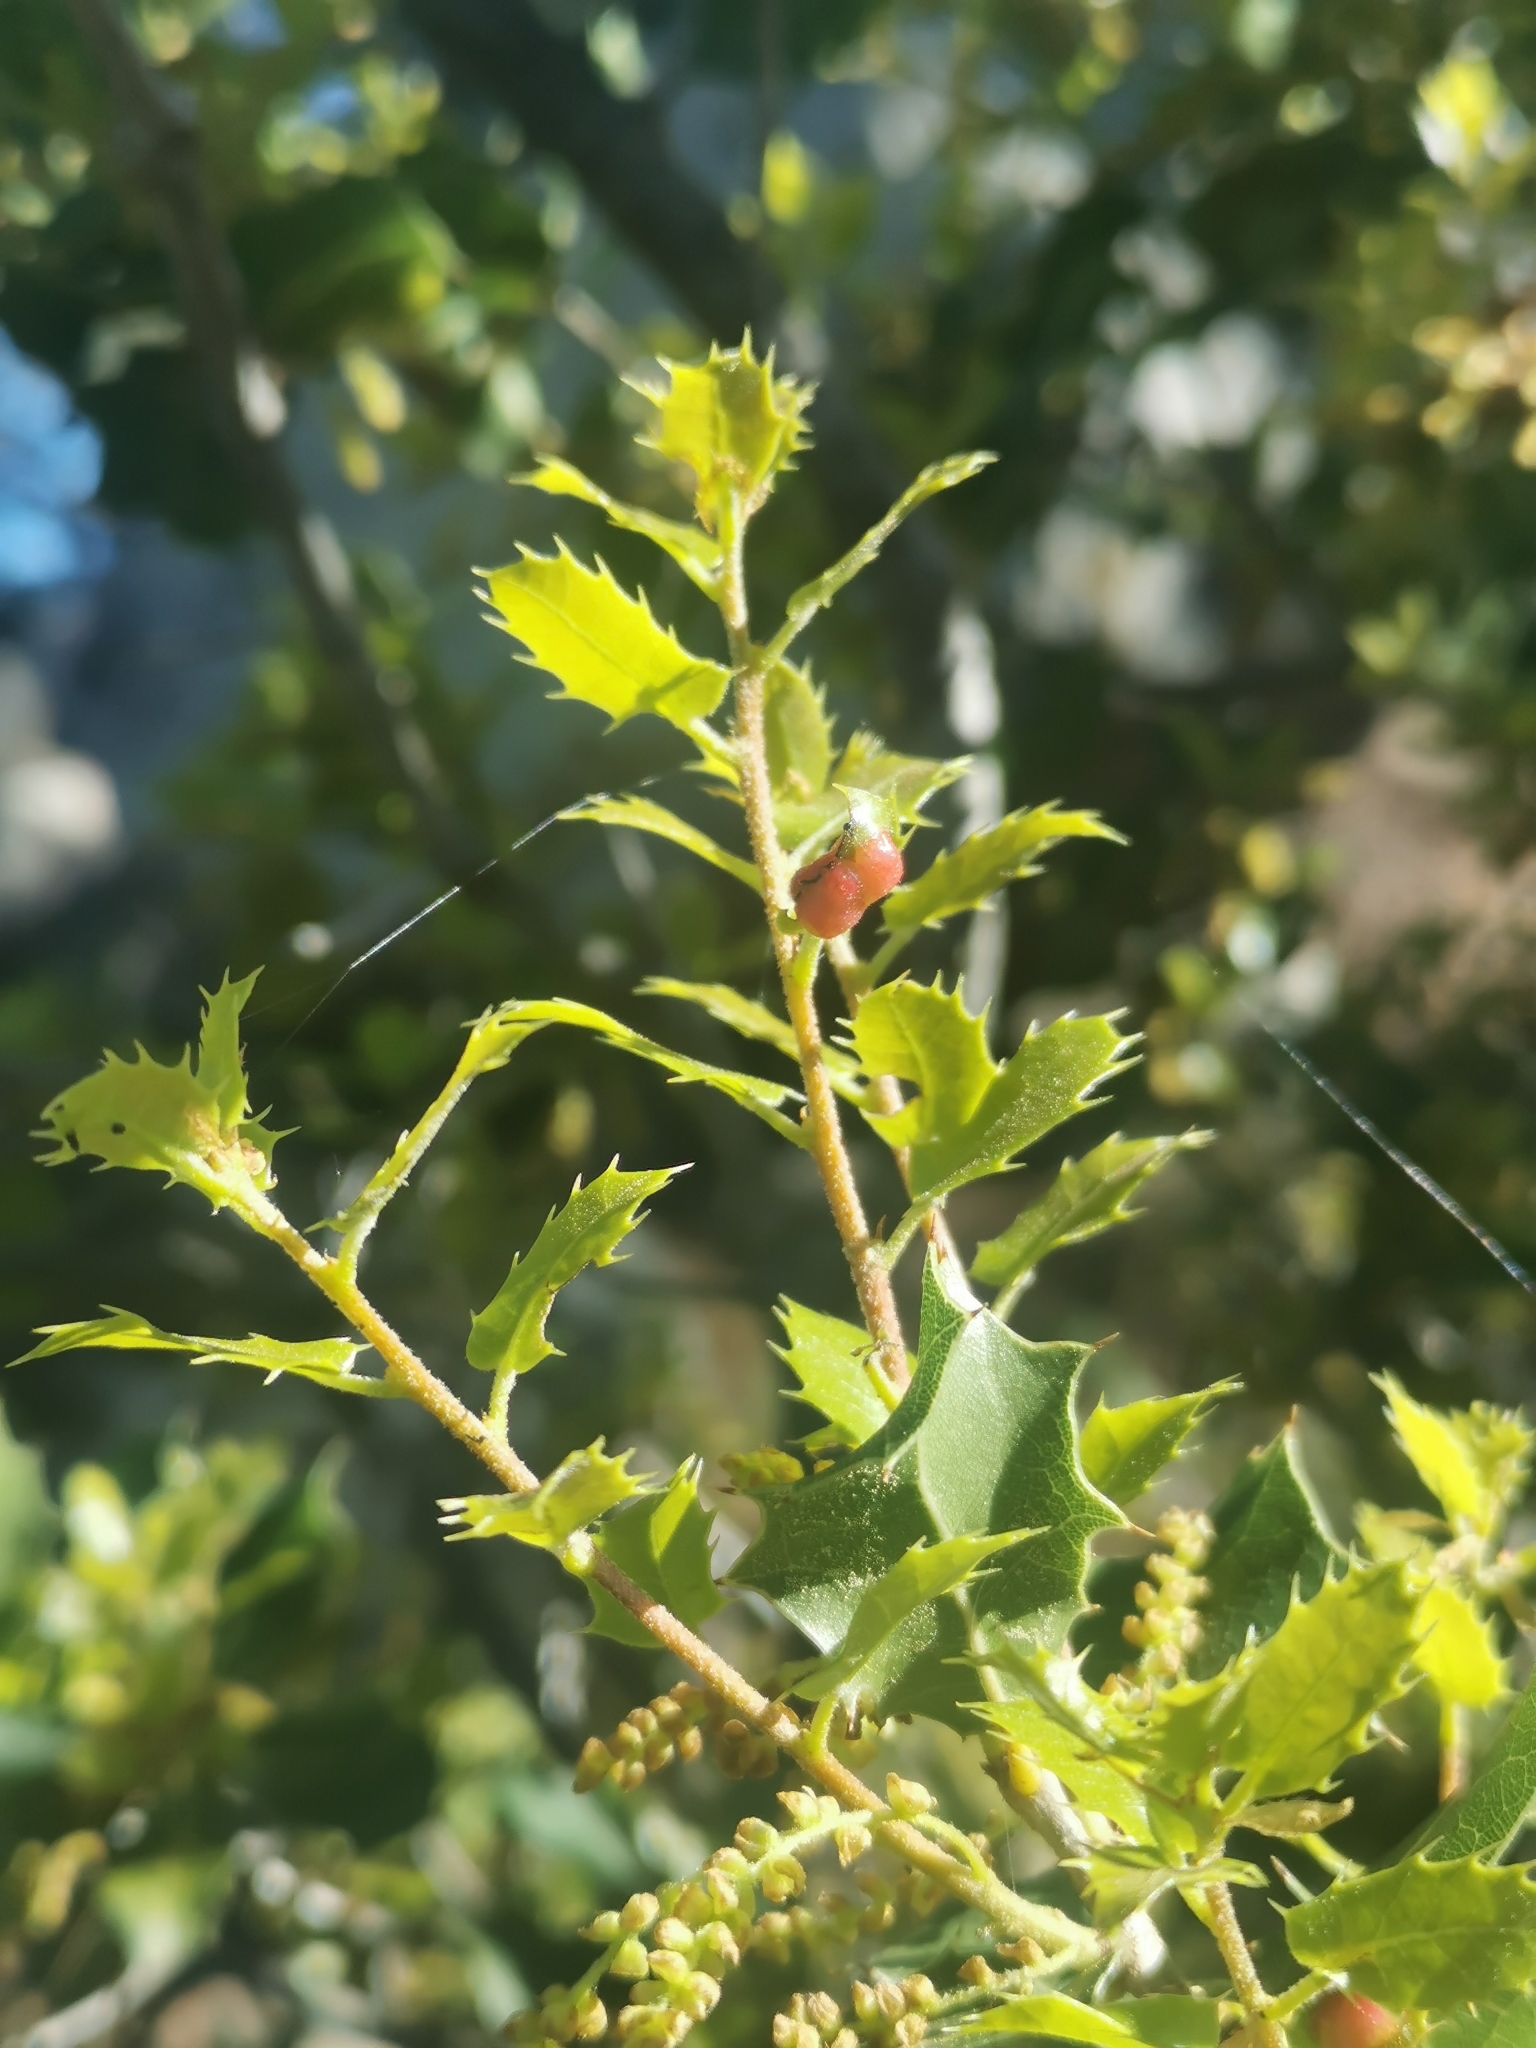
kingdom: Animalia
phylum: Arthropoda
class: Insecta
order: Hymenoptera
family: Cynipidae
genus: Plagiotrochus
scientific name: Plagiotrochus quercusilicis
